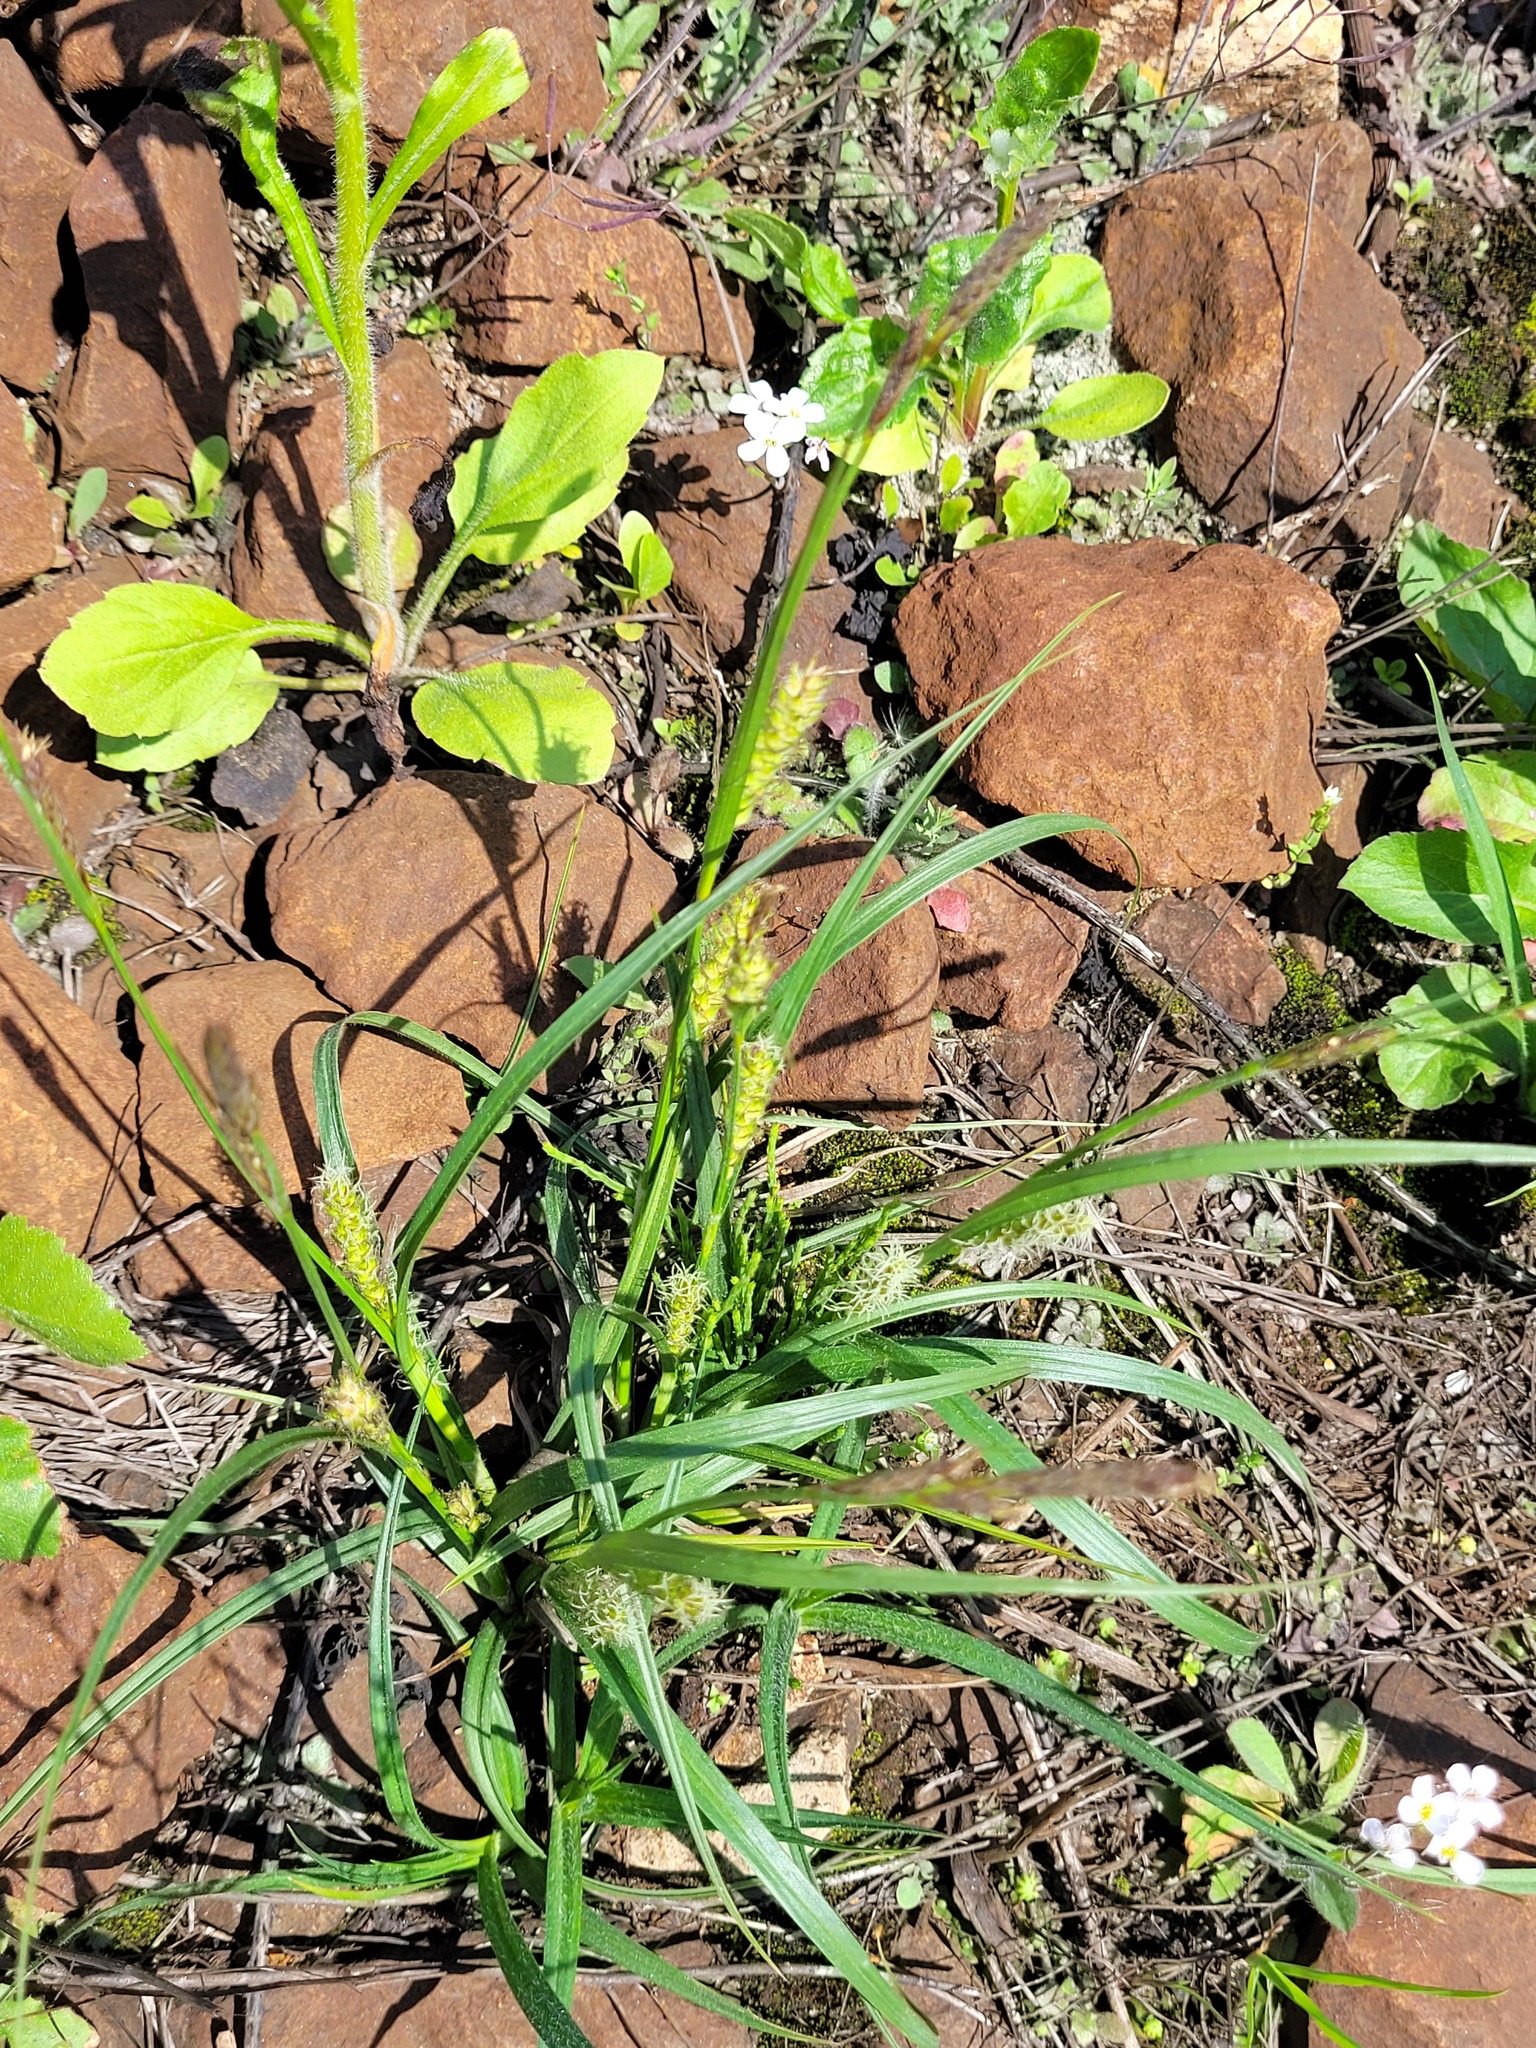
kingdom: Plantae
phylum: Tracheophyta
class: Liliopsida
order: Poales
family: Cyperaceae
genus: Carex
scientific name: Carex hirta
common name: Hairy sedge
